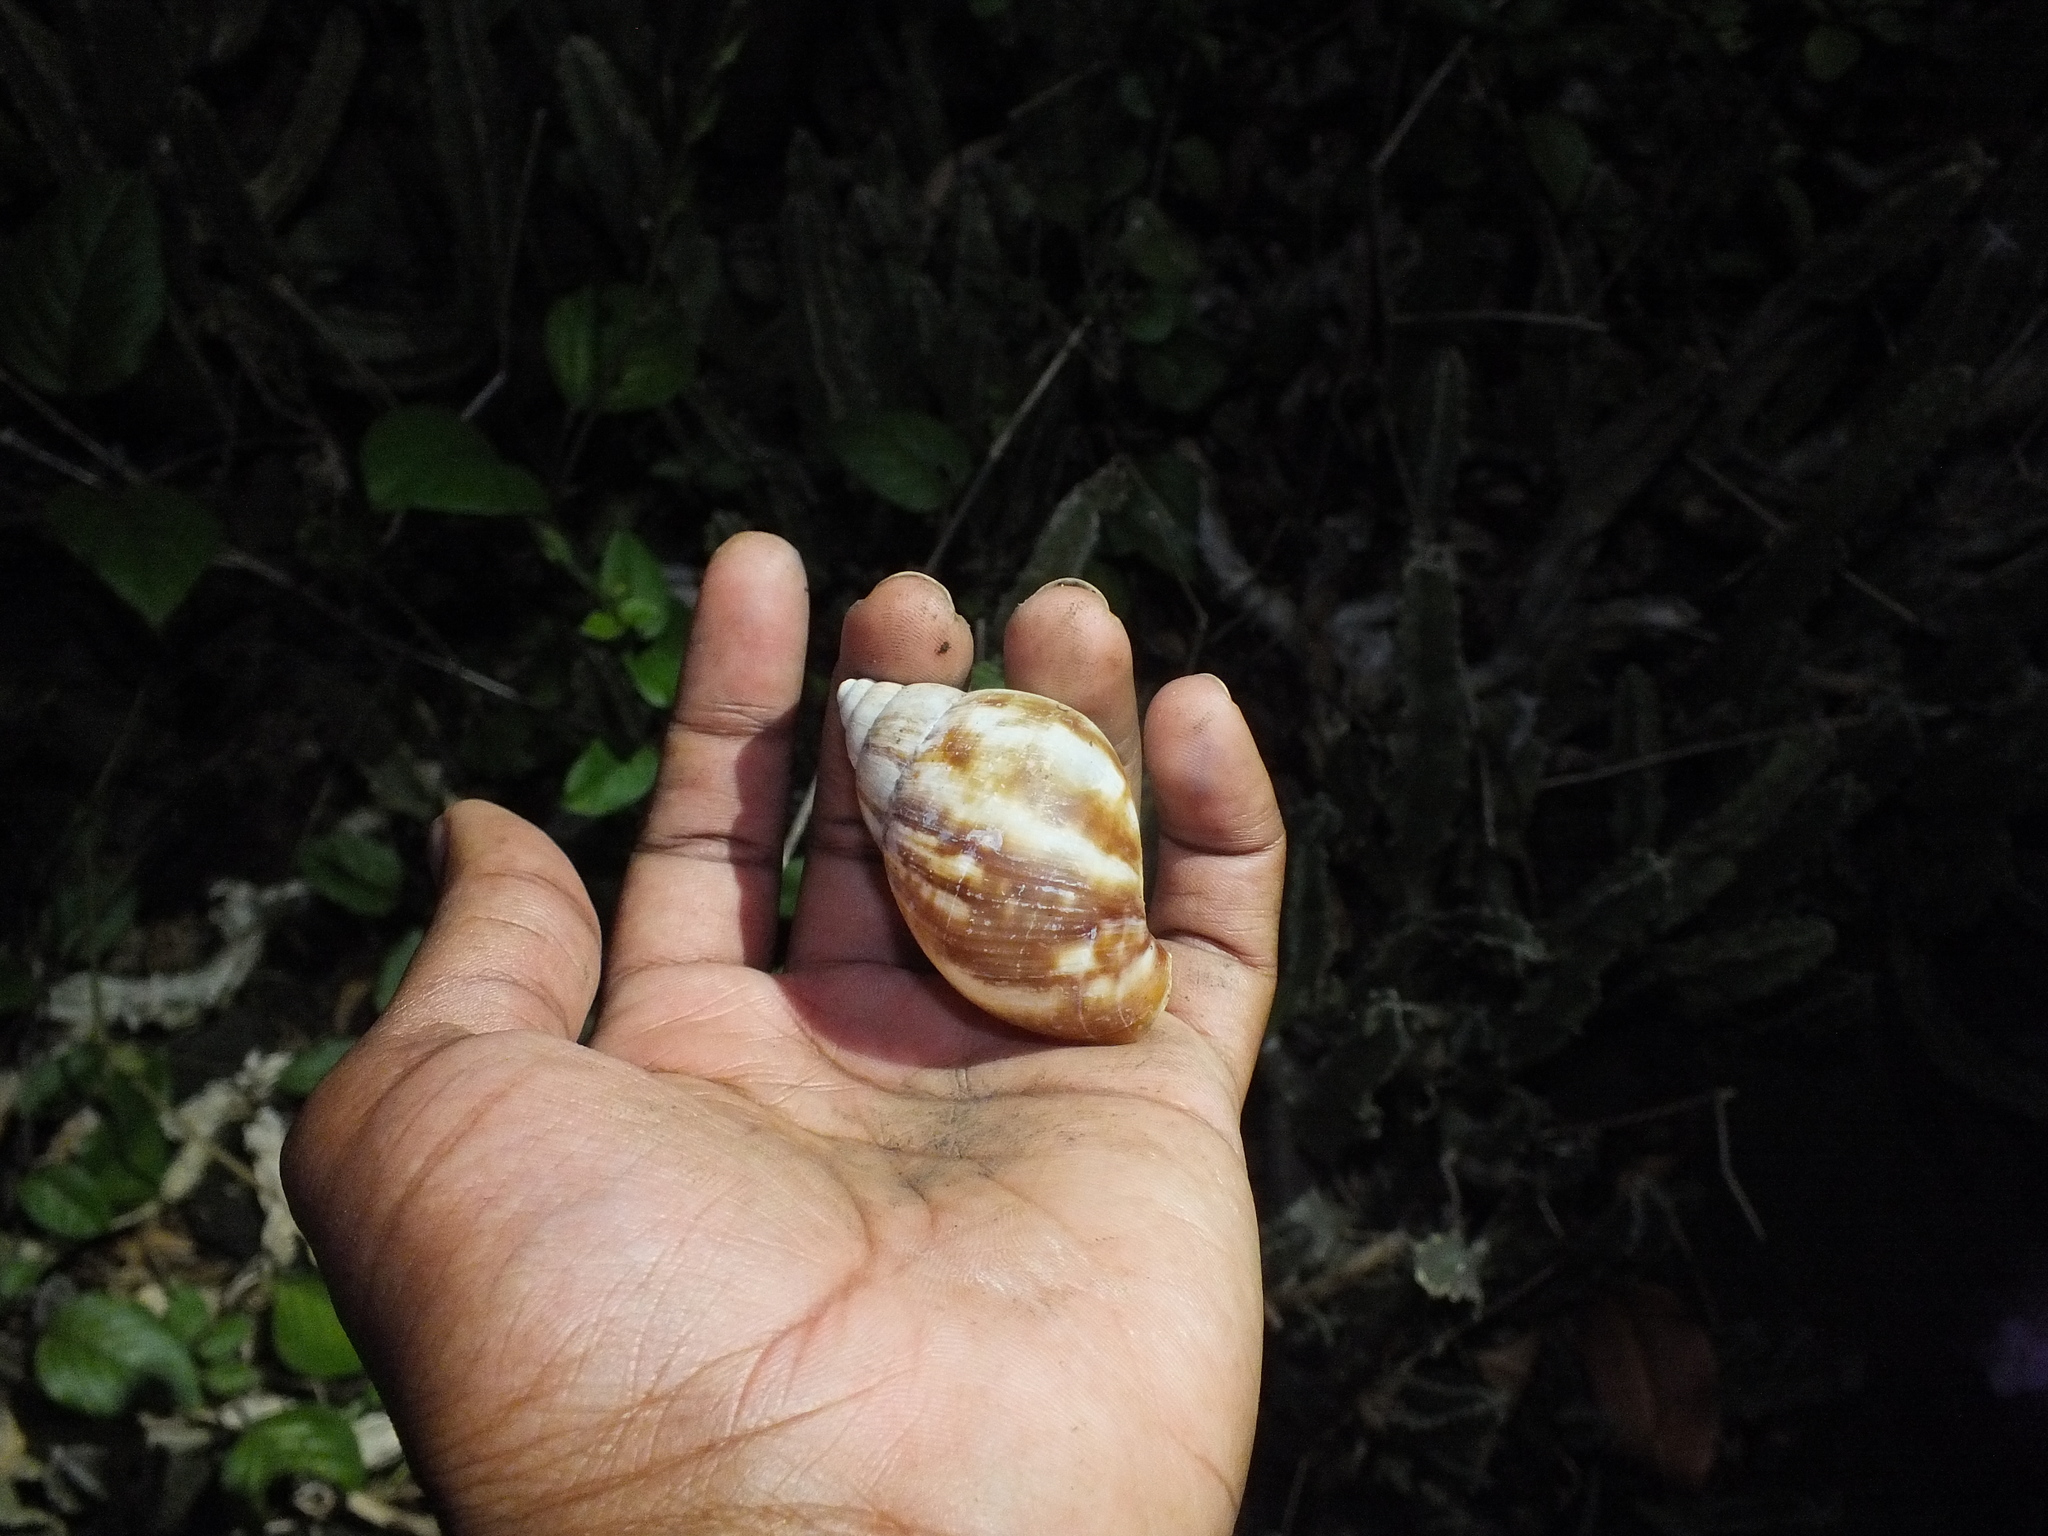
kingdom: Animalia
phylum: Mollusca
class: Gastropoda
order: Stylommatophora
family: Achatinidae
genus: Lissachatina
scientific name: Lissachatina fulica
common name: Giant african snail
